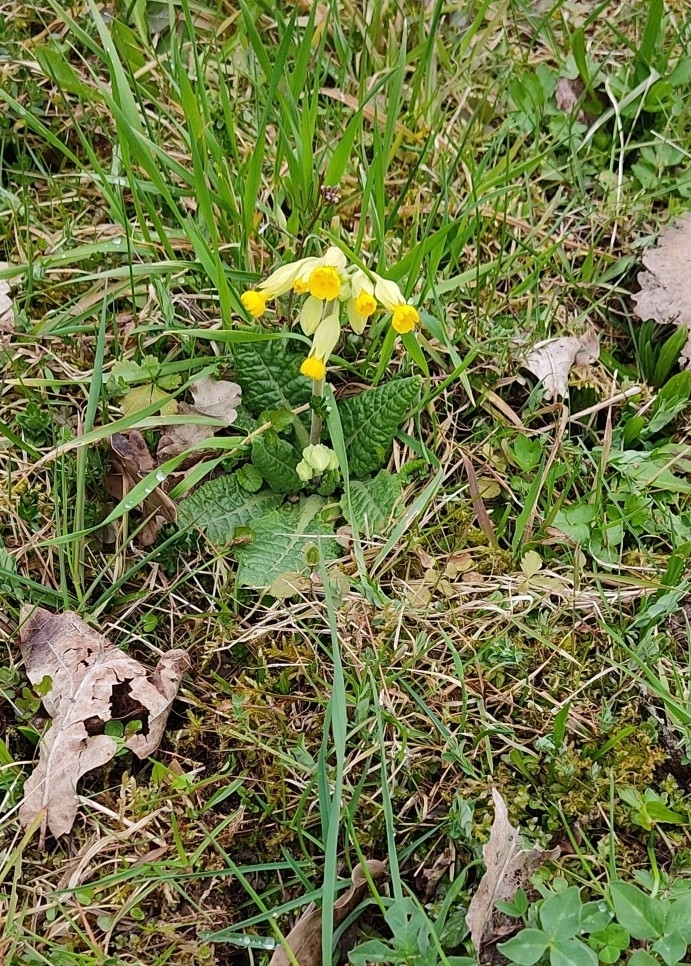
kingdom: Plantae
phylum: Tracheophyta
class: Magnoliopsida
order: Ericales
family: Primulaceae
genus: Primula
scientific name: Primula veris
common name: Cowslip
